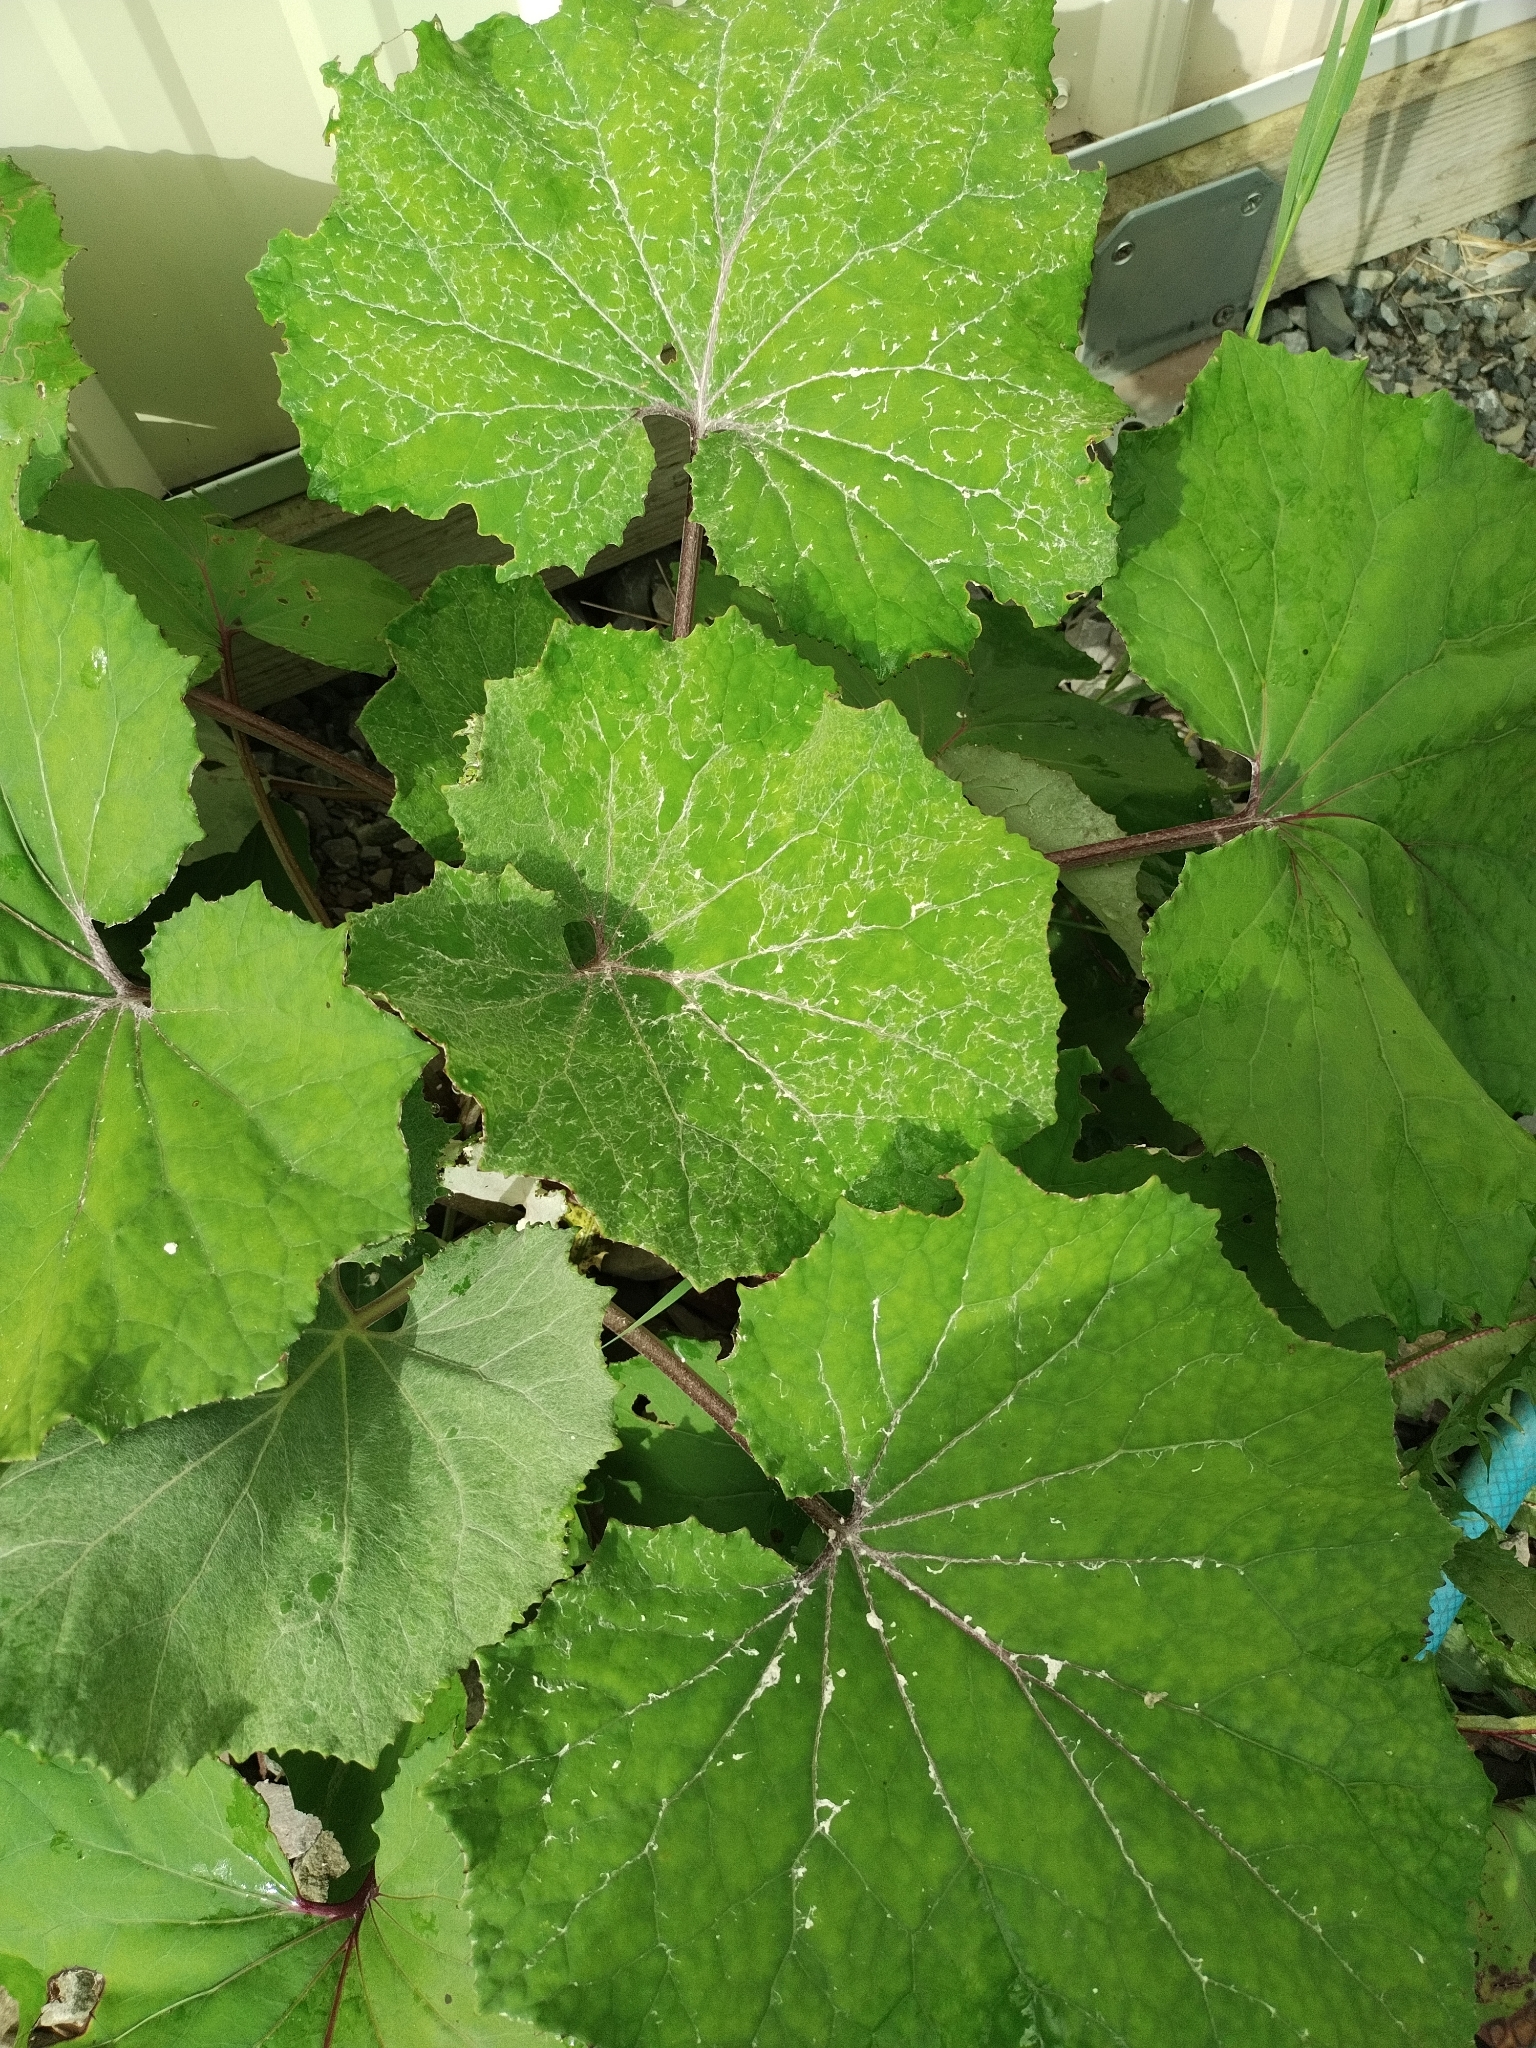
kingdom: Plantae
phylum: Tracheophyta
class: Magnoliopsida
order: Asterales
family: Asteraceae
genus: Tussilago
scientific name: Tussilago farfara
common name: Coltsfoot
